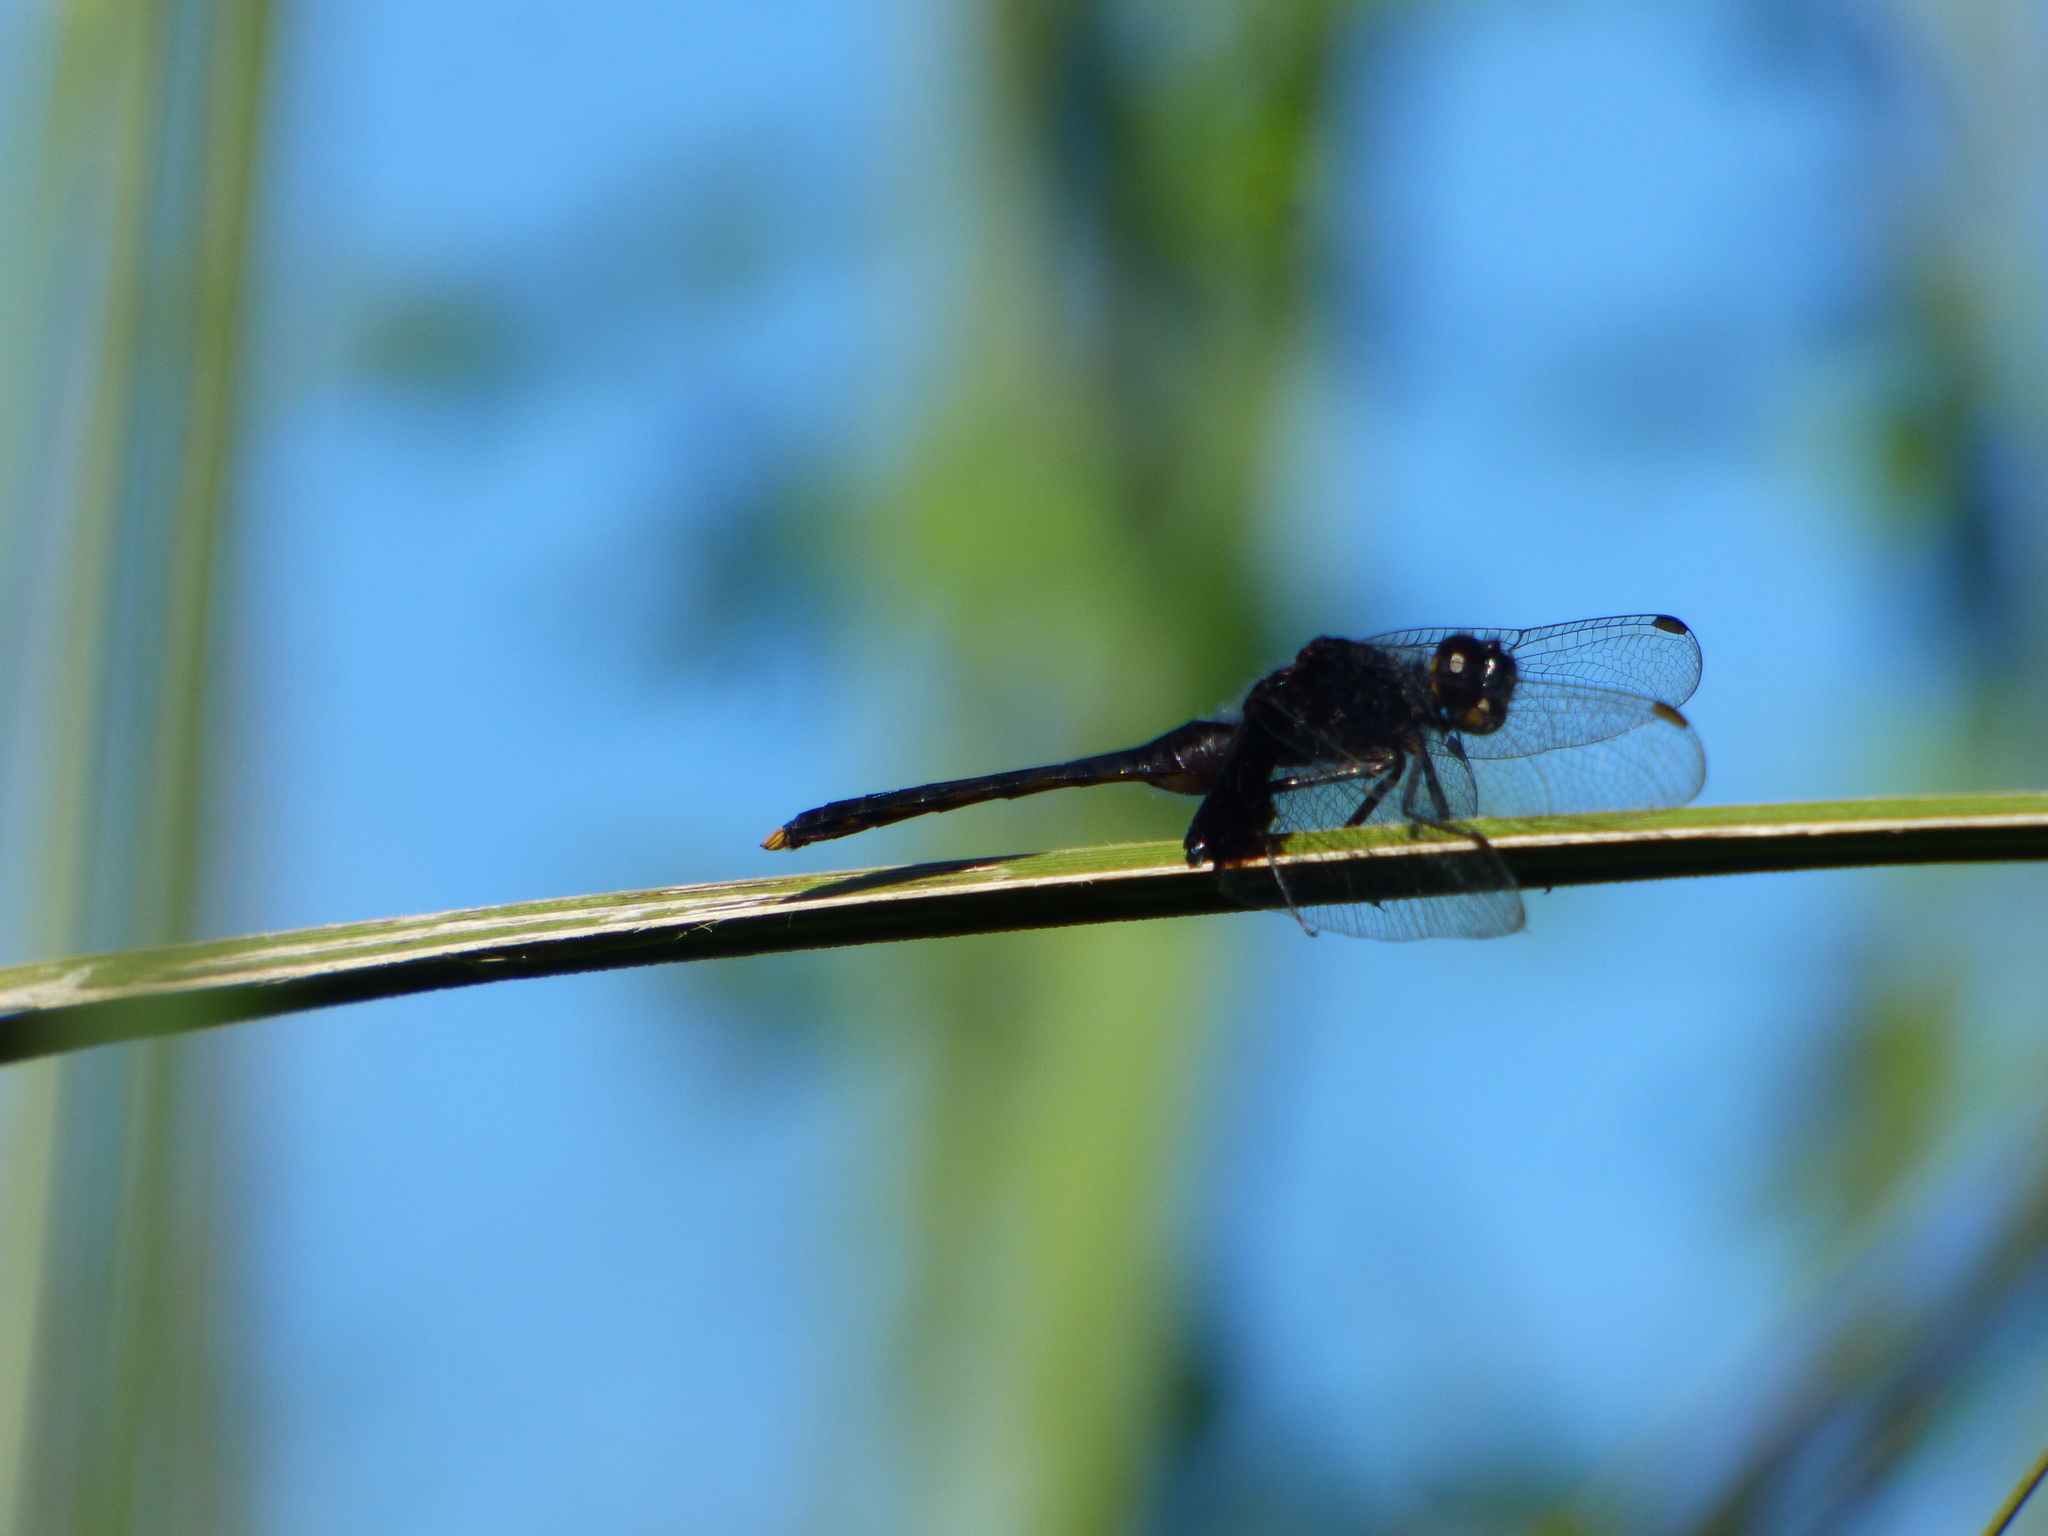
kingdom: Animalia
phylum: Arthropoda
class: Insecta
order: Odonata
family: Libellulidae
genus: Erythemis
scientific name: Erythemis attala
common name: Black pondhawk
